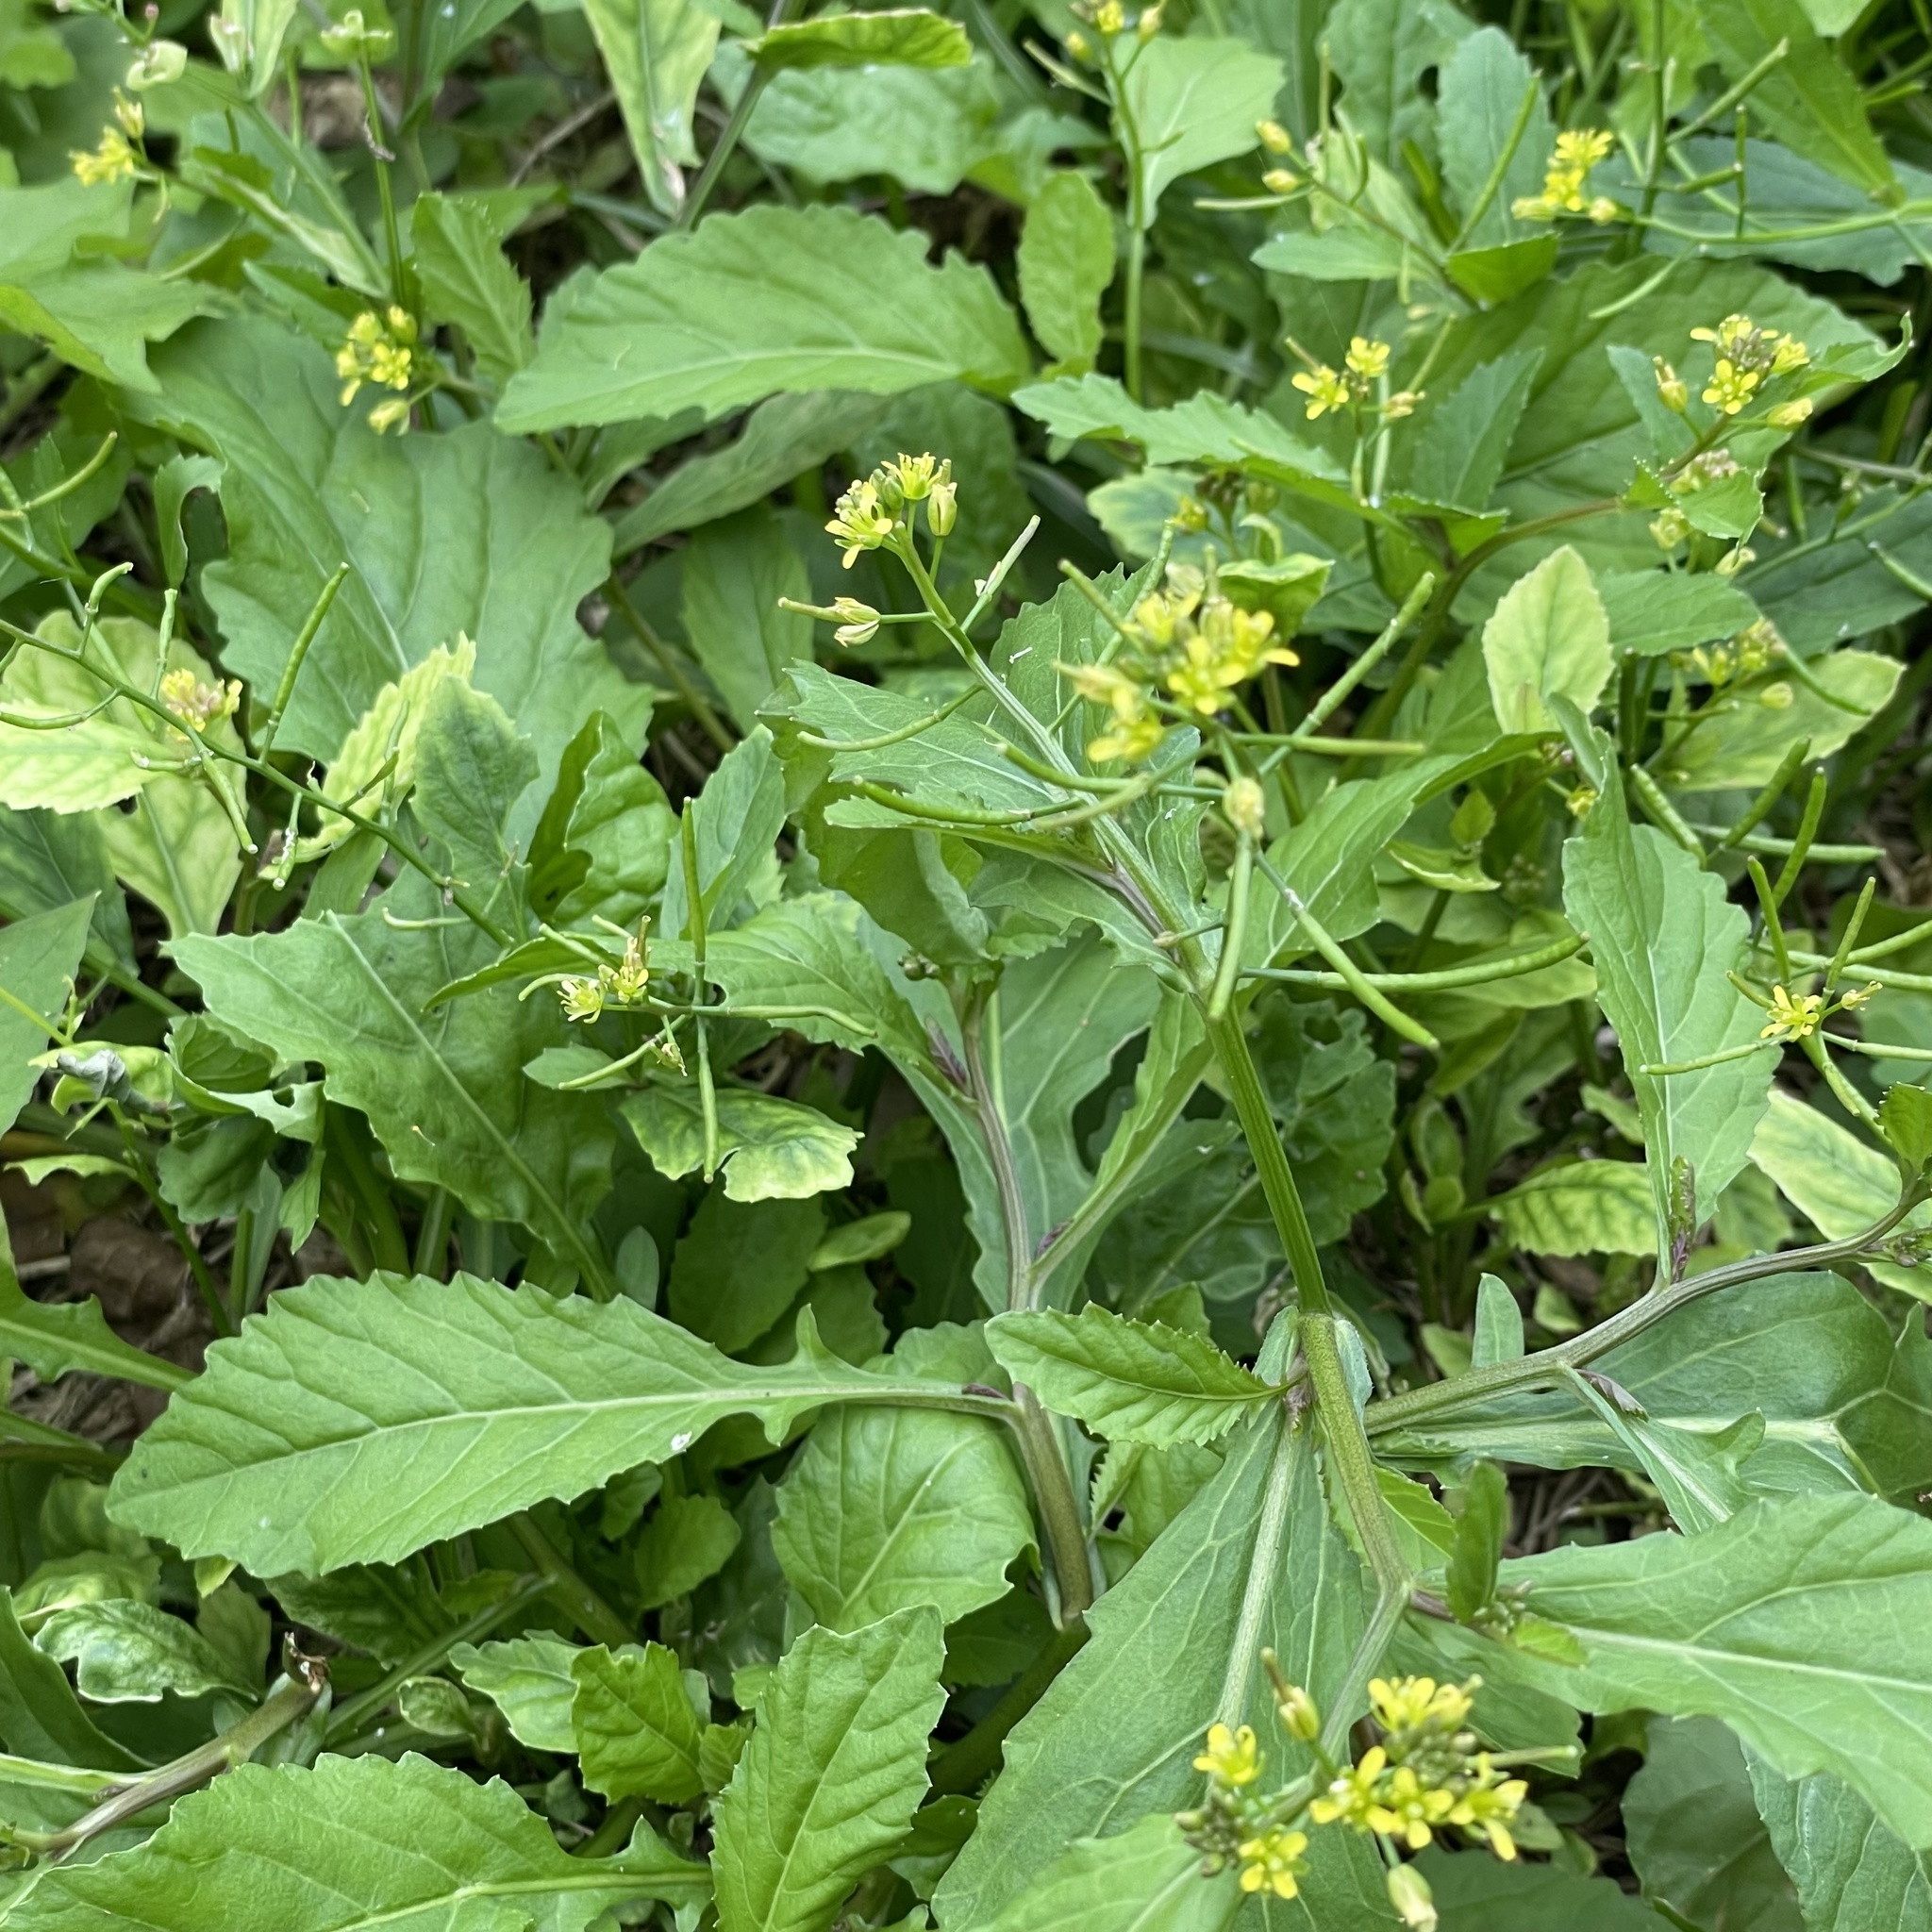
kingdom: Plantae
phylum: Tracheophyta
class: Magnoliopsida
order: Brassicales
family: Brassicaceae
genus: Rorippa
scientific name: Rorippa indica
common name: Variableleaf yellowcress
